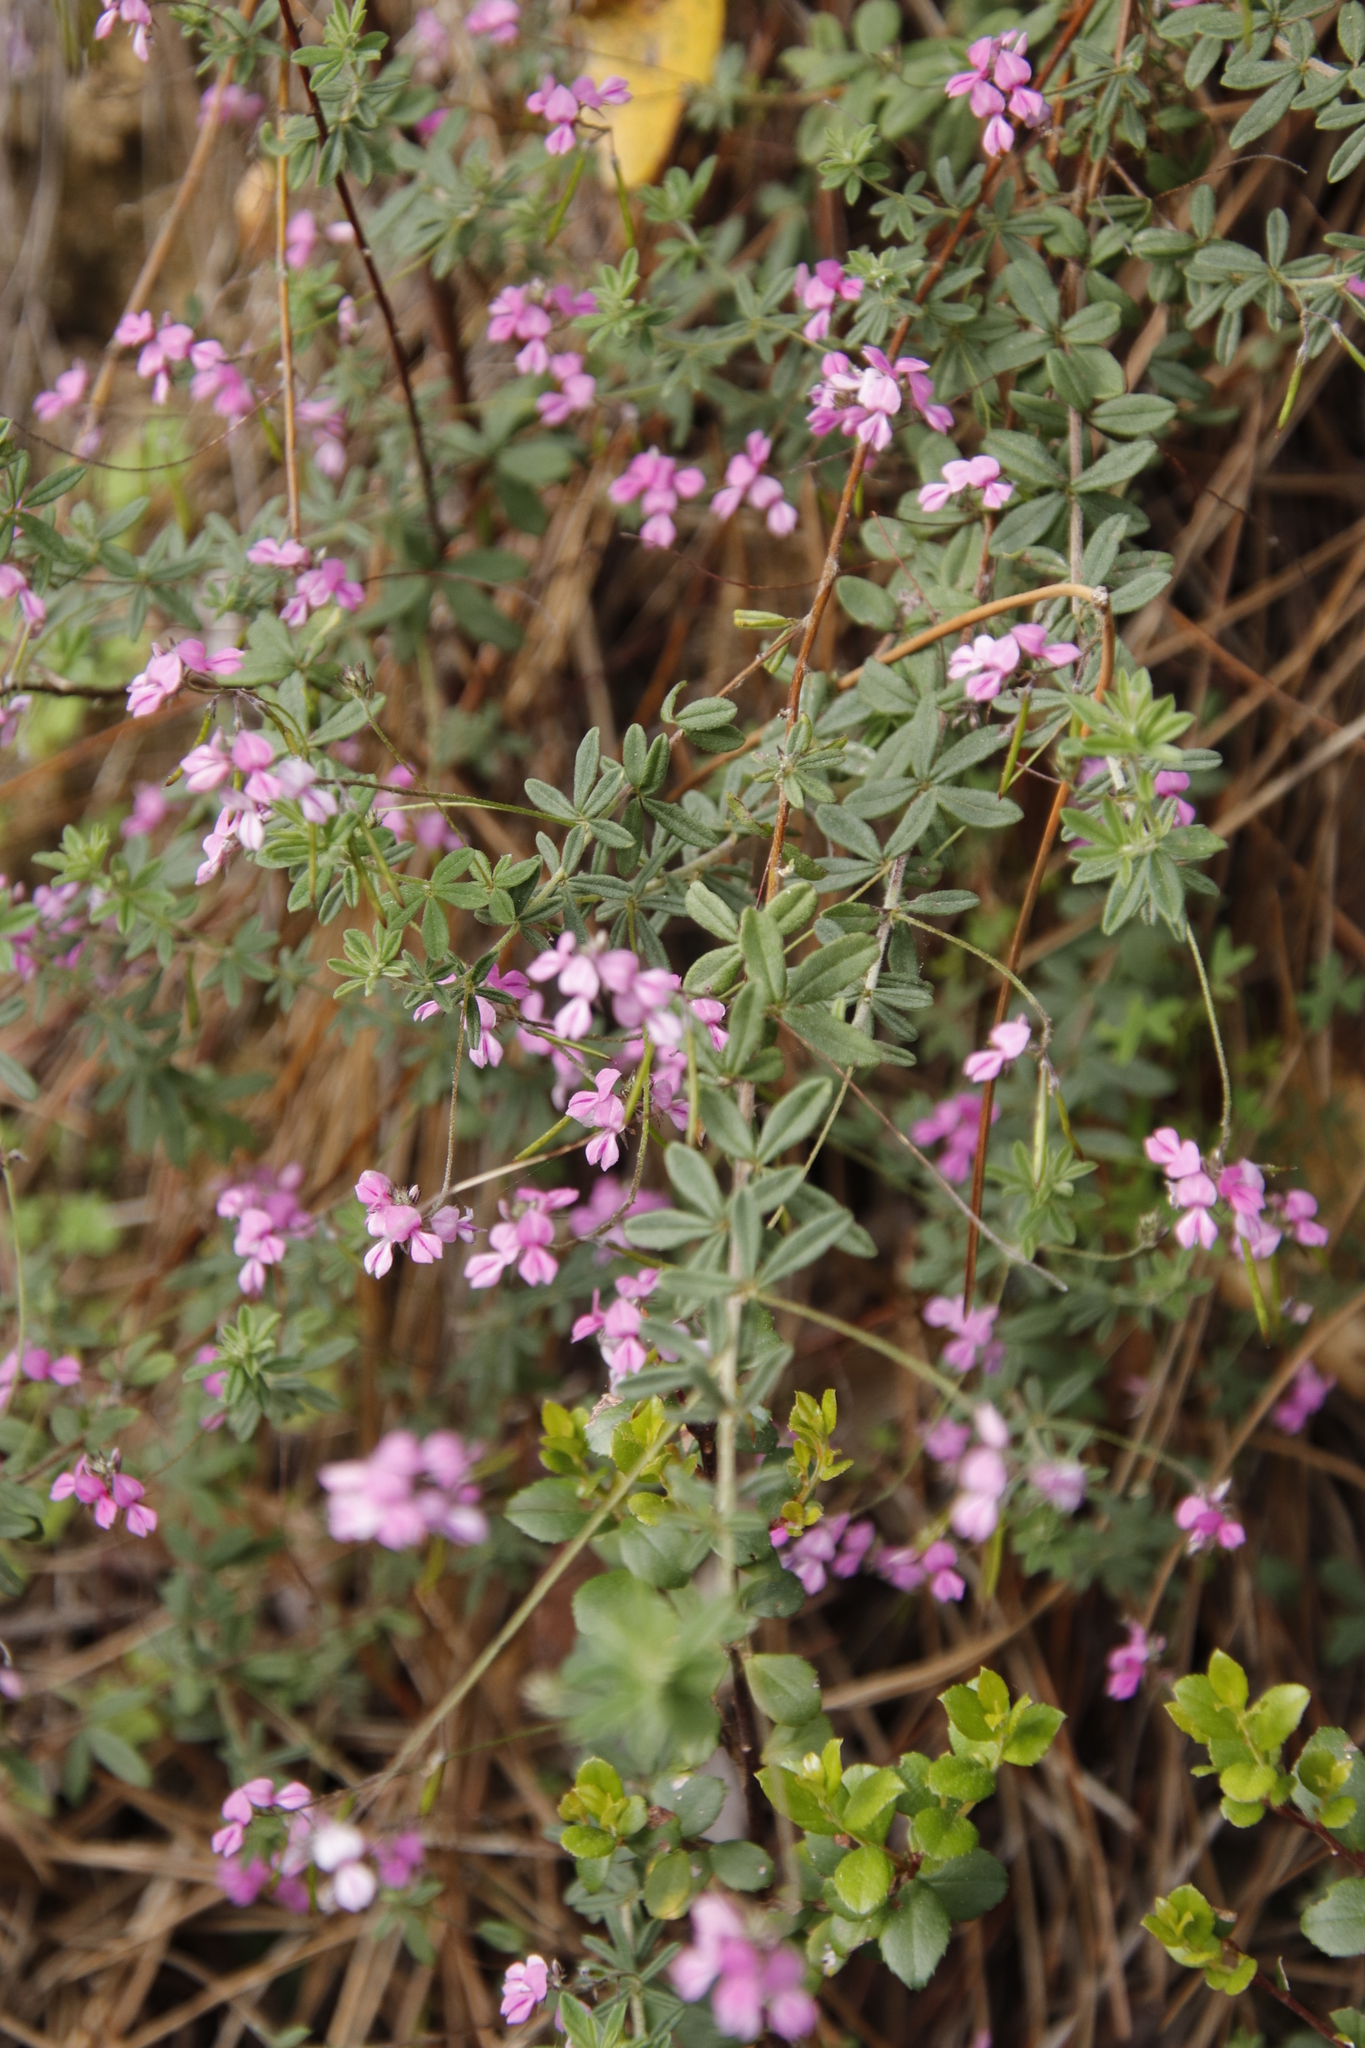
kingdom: Plantae
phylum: Tracheophyta
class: Magnoliopsida
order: Fabales
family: Fabaceae
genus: Indigofera
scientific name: Indigofera filiformis
